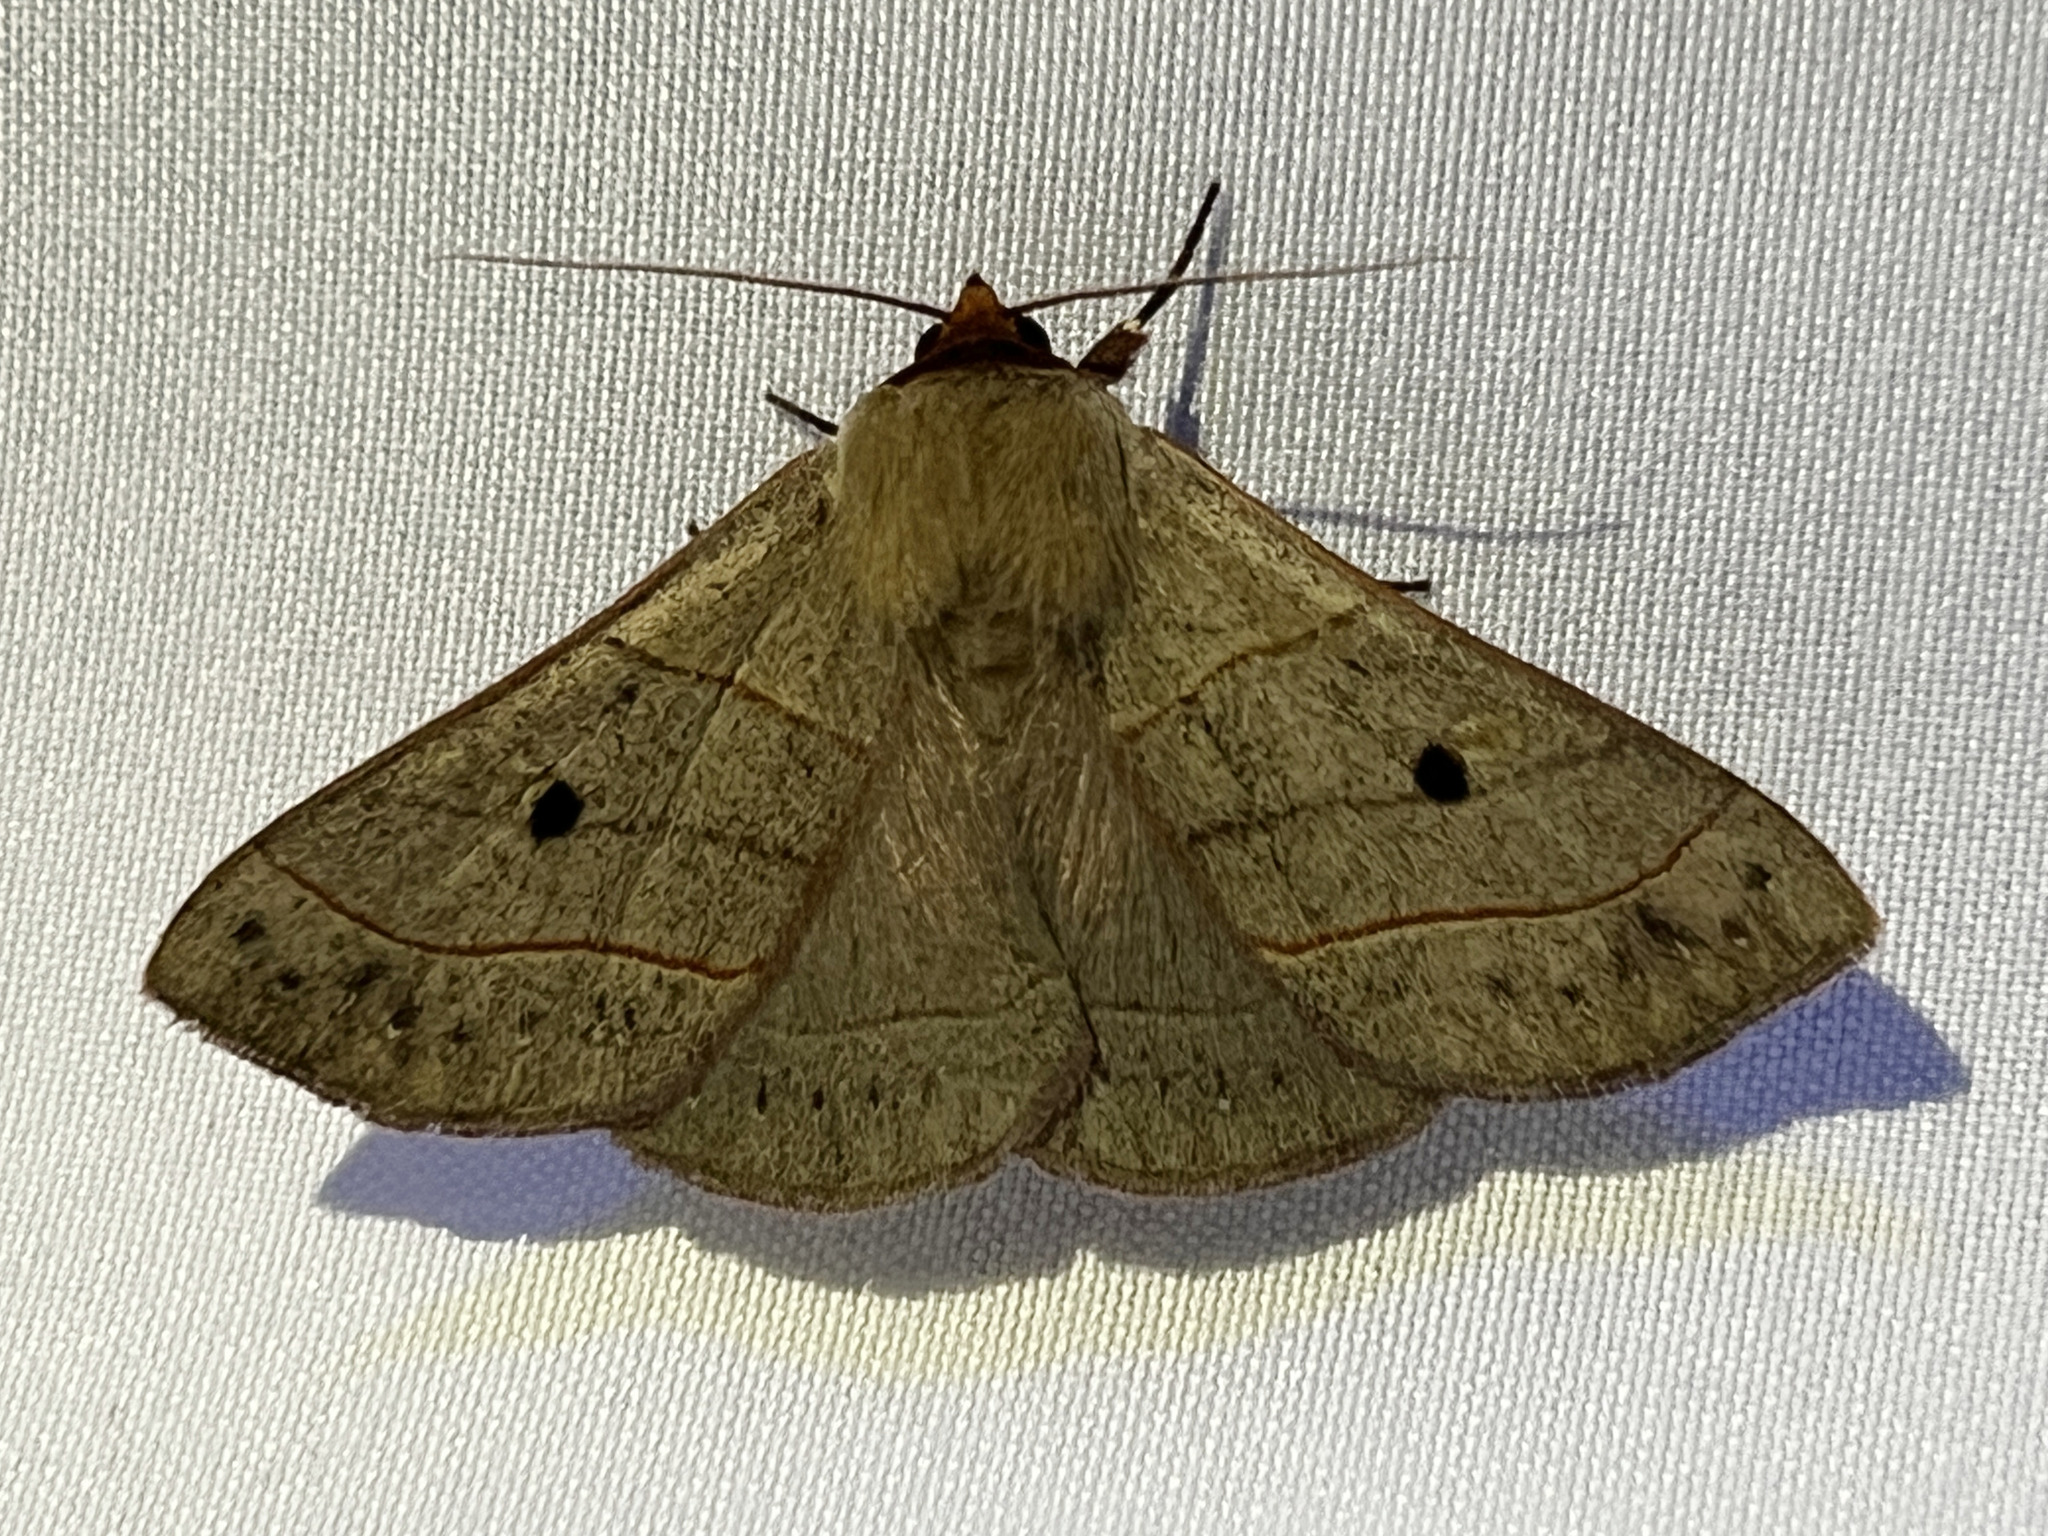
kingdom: Animalia
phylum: Arthropoda
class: Insecta
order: Lepidoptera
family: Erebidae
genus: Panopoda
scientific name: Panopoda rufimargo
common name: Red-lined panopoda moth
